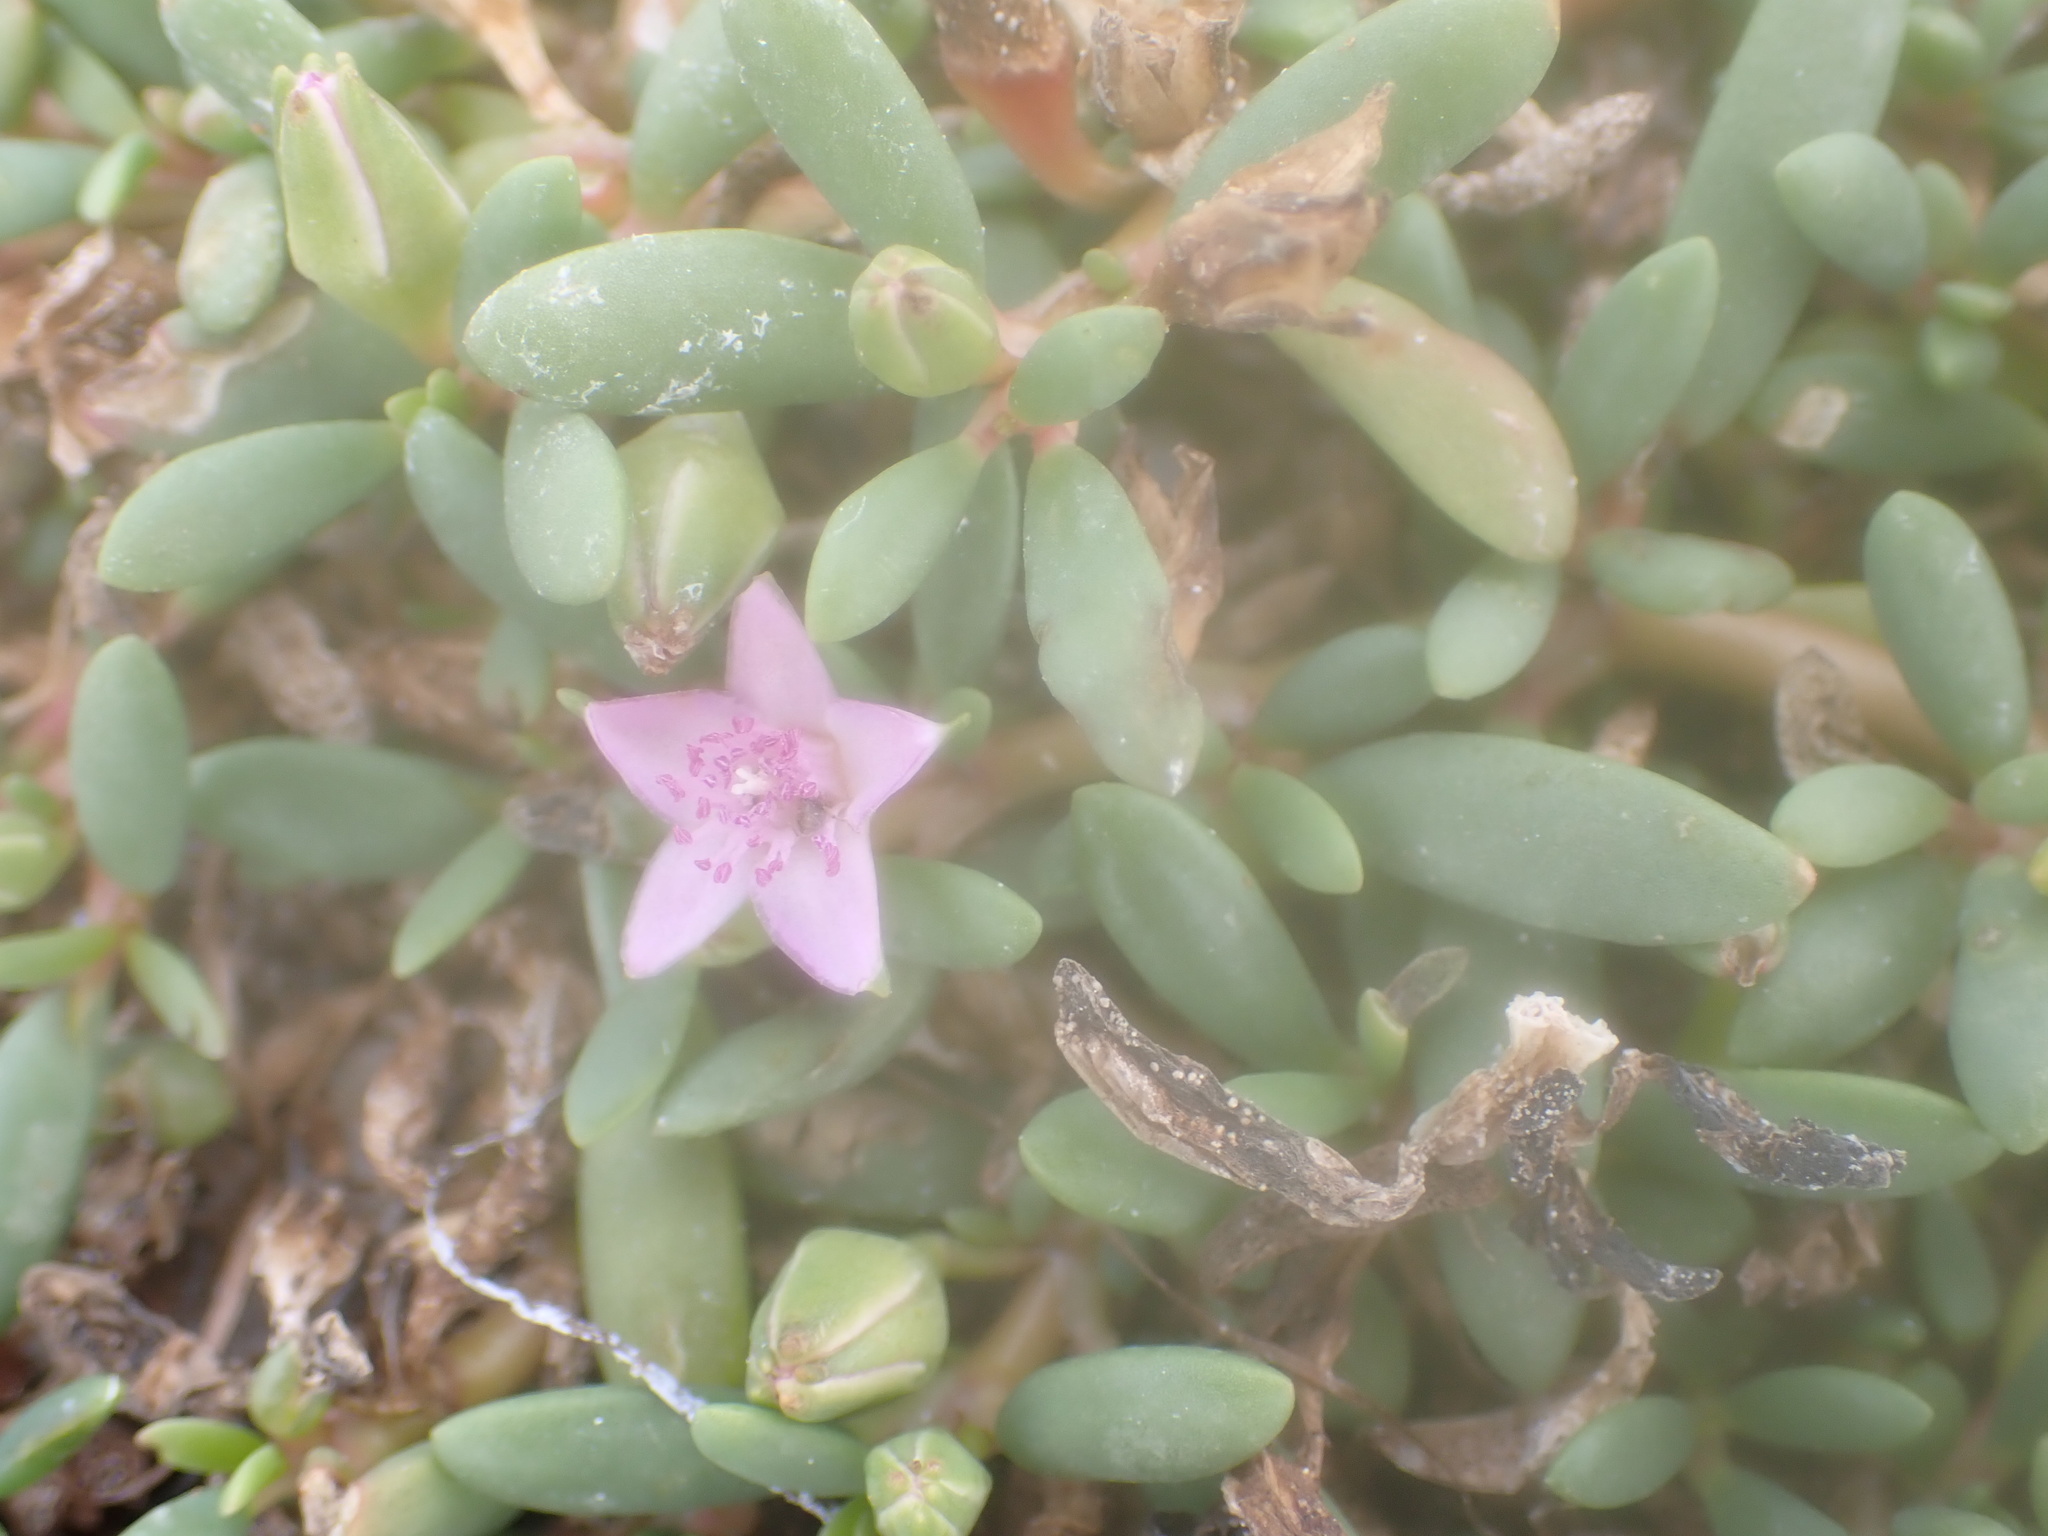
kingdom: Plantae
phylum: Tracheophyta
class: Magnoliopsida
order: Caryophyllales
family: Aizoaceae
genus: Sesuvium
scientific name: Sesuvium portulacastrum
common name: Sea-purslane
